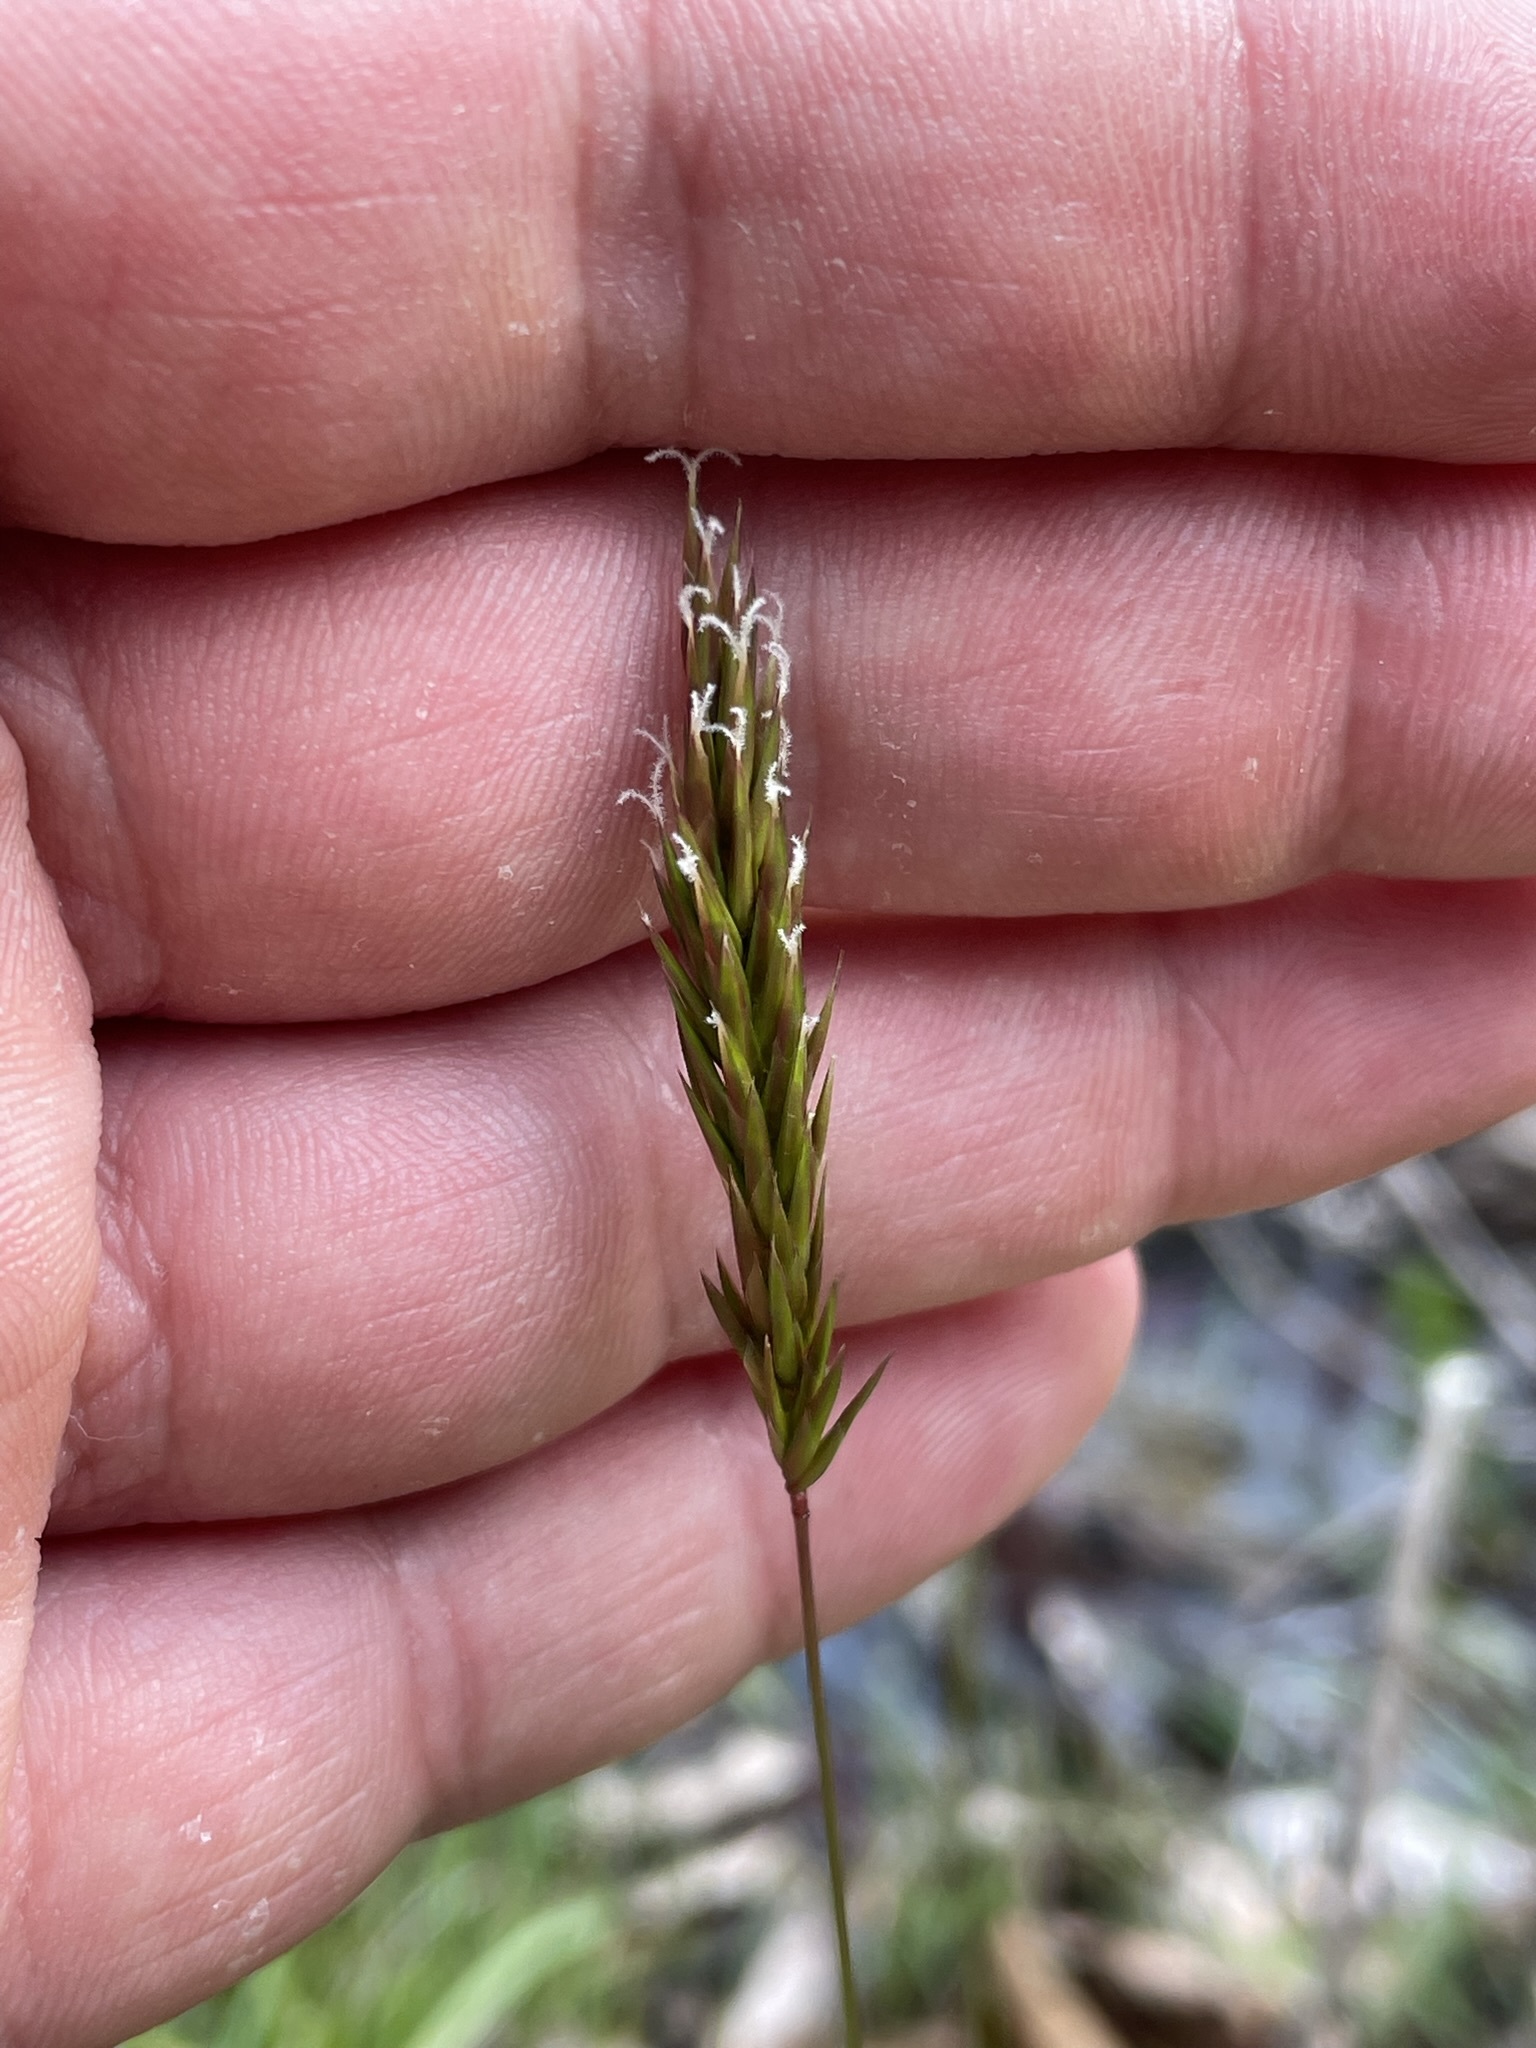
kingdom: Plantae
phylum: Tracheophyta
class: Liliopsida
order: Poales
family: Poaceae
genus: Anthoxanthum
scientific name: Anthoxanthum odoratum
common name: Sweet vernalgrass
